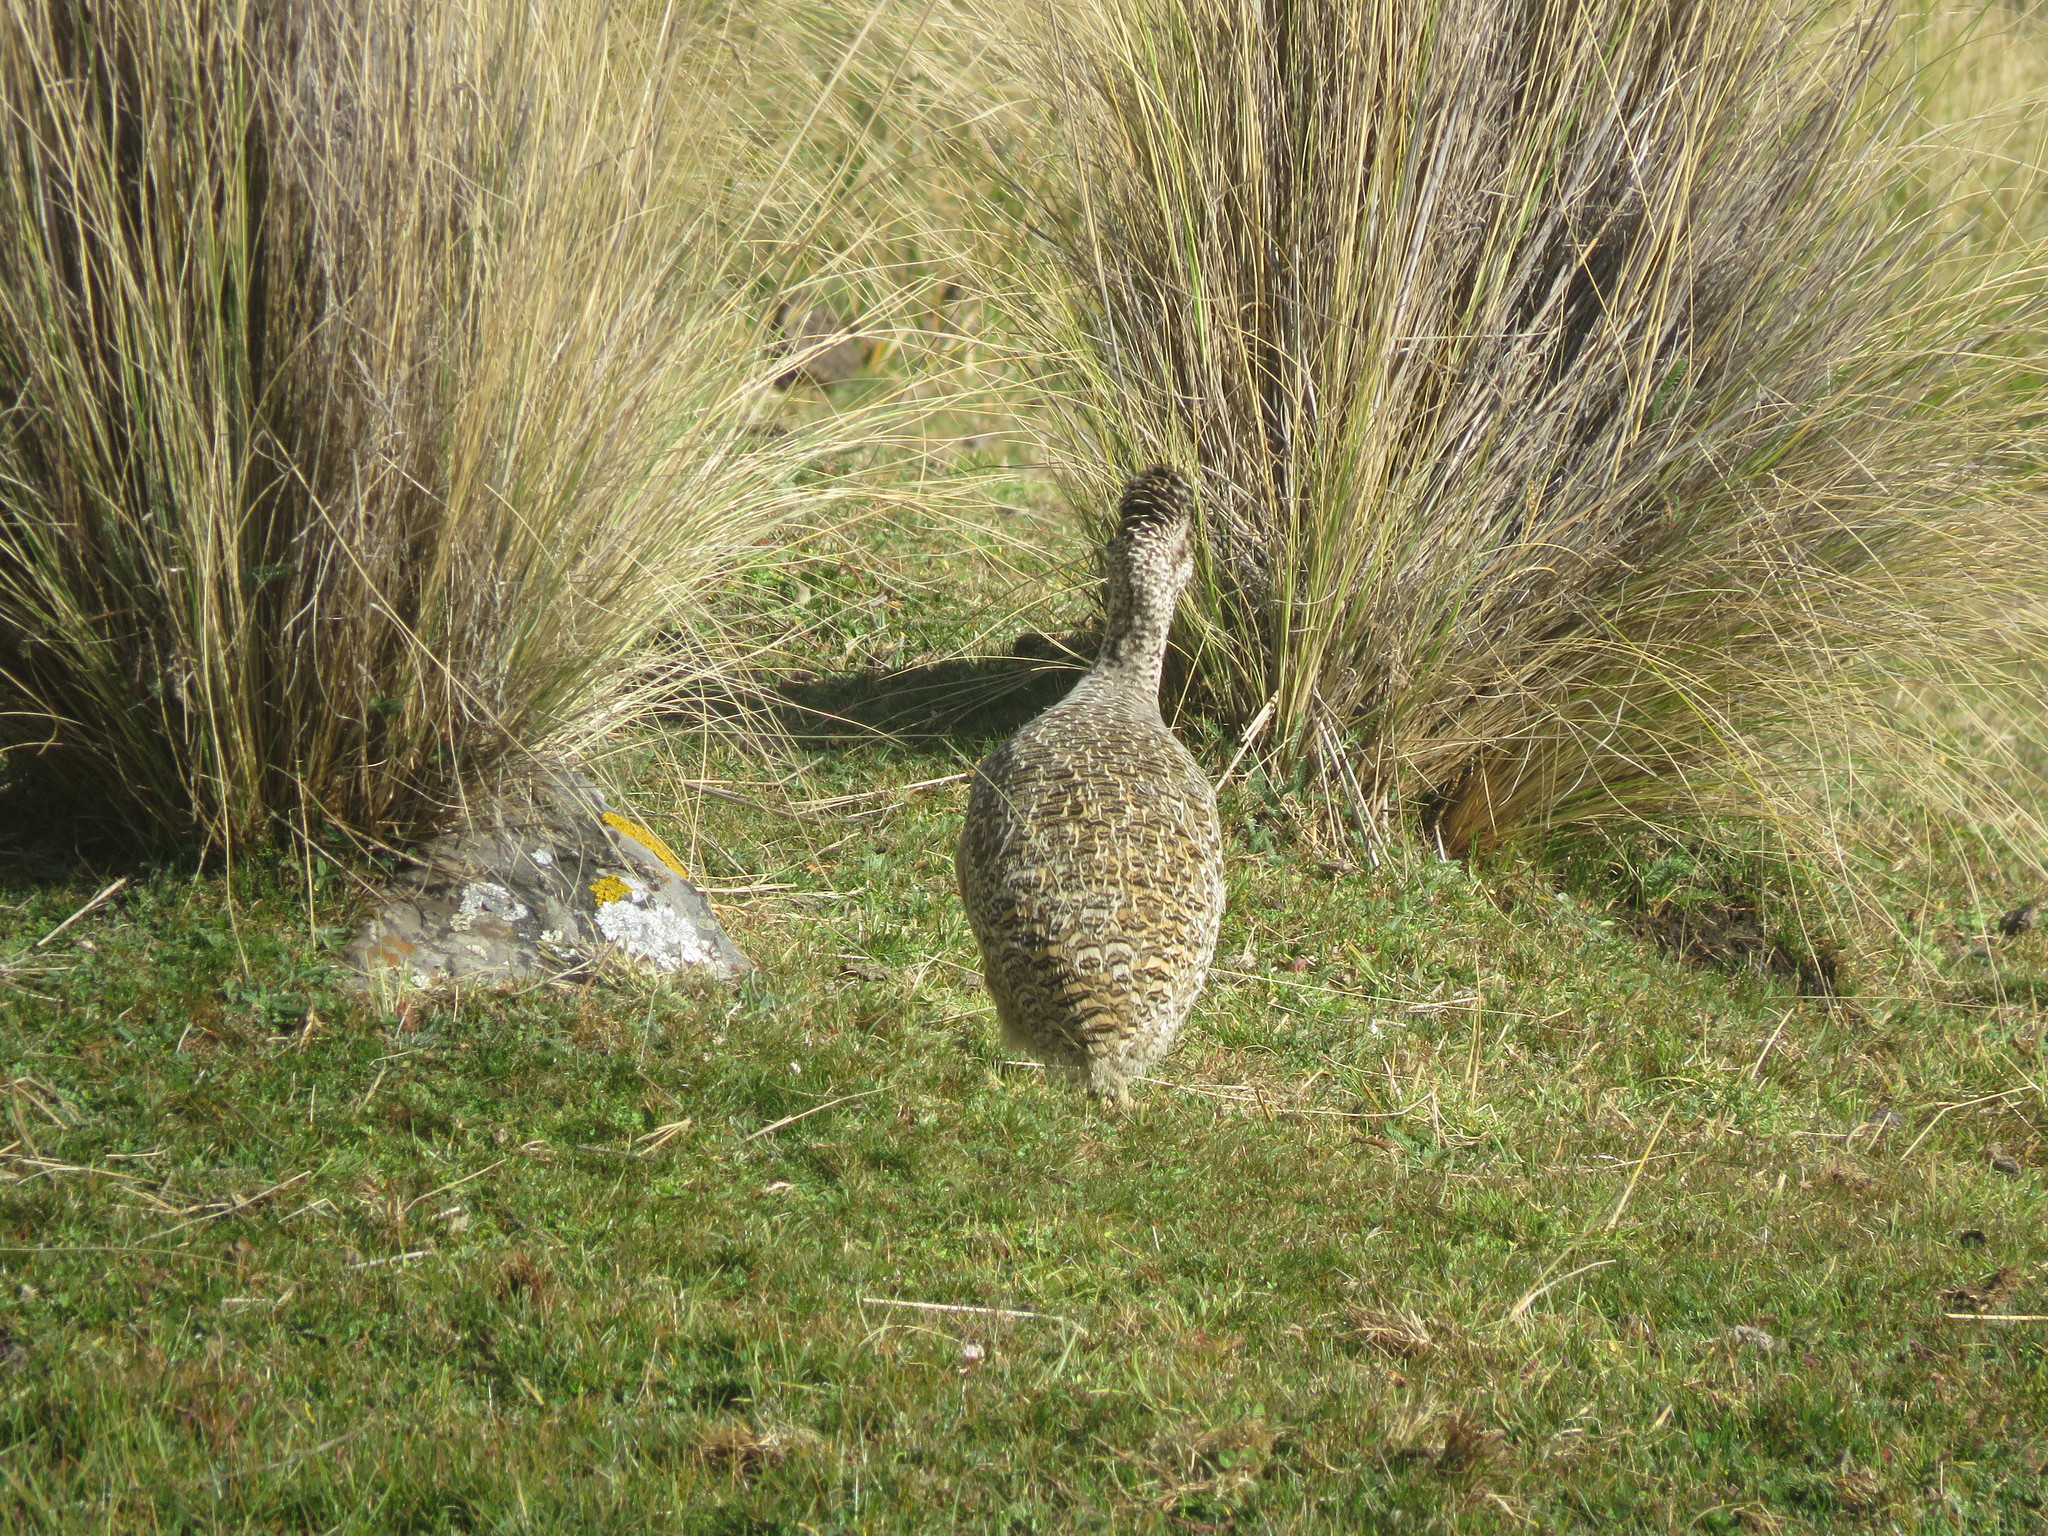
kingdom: Animalia
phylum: Chordata
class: Aves
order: Tinamiformes
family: Tinamidae
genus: Nothoprocta
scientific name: Nothoprocta ornata
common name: Ornate tinamou
